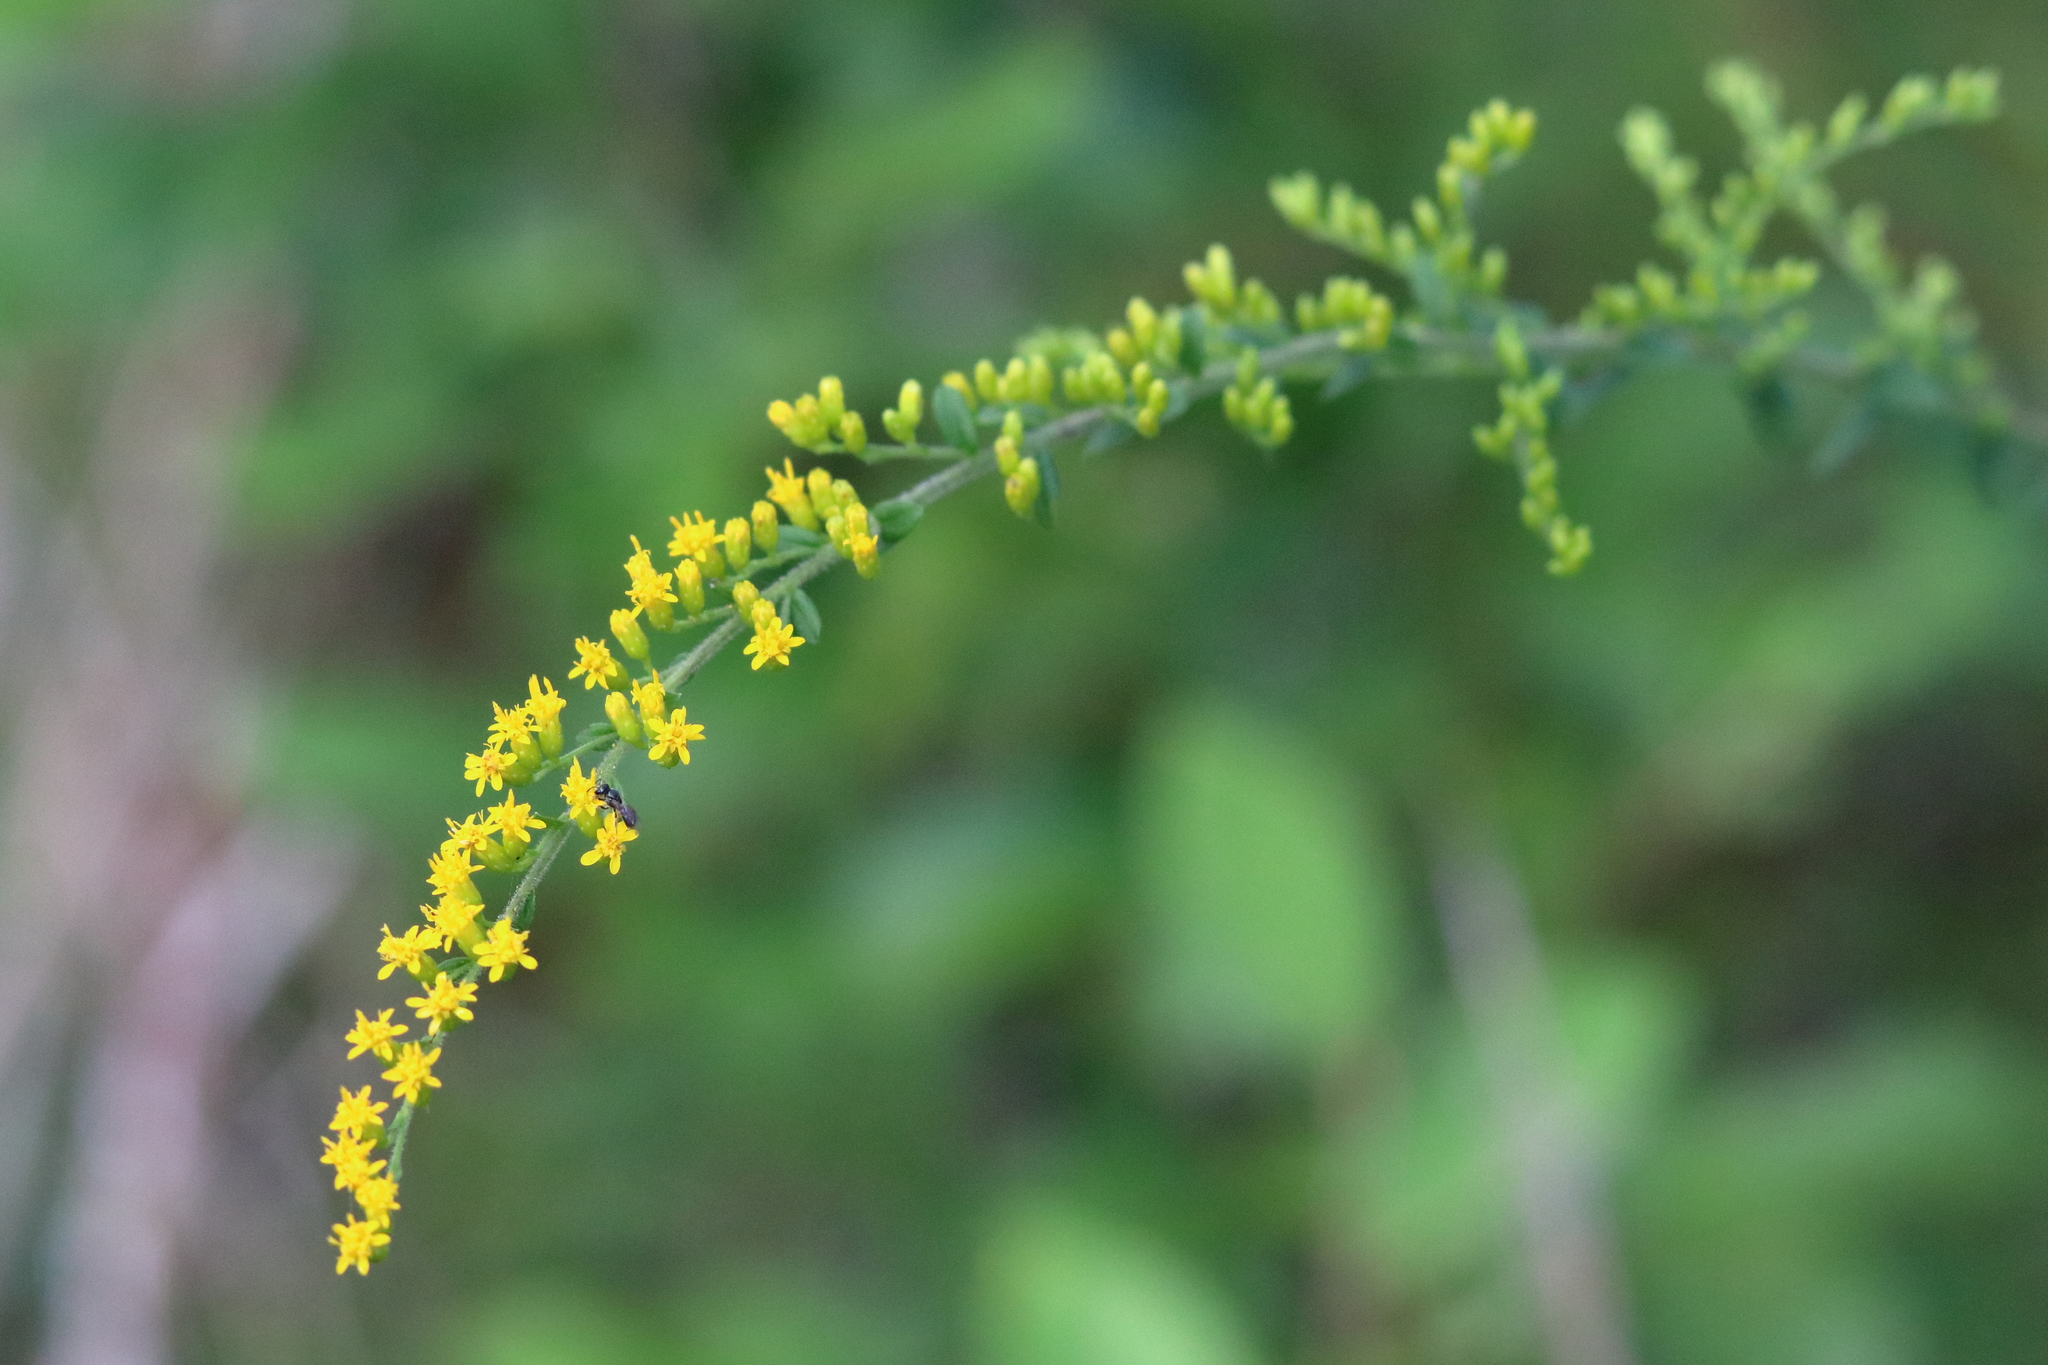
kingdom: Plantae
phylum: Tracheophyta
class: Magnoliopsida
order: Asterales
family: Asteraceae
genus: Solidago
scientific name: Solidago rugosa
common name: Rough-stemmed goldenrod
